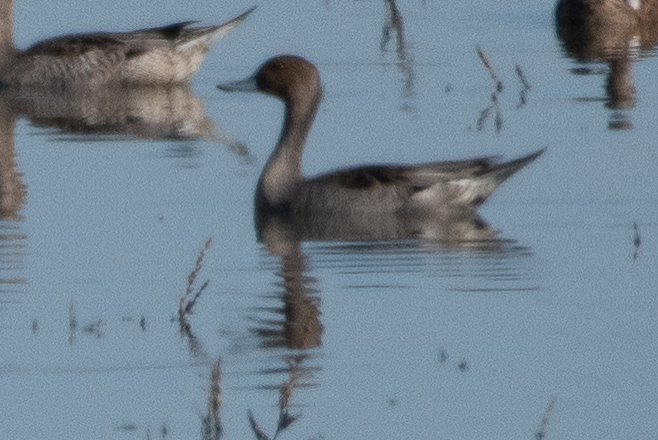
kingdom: Animalia
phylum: Chordata
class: Aves
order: Anseriformes
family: Anatidae
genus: Anas
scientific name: Anas acuta
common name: Northern pintail
